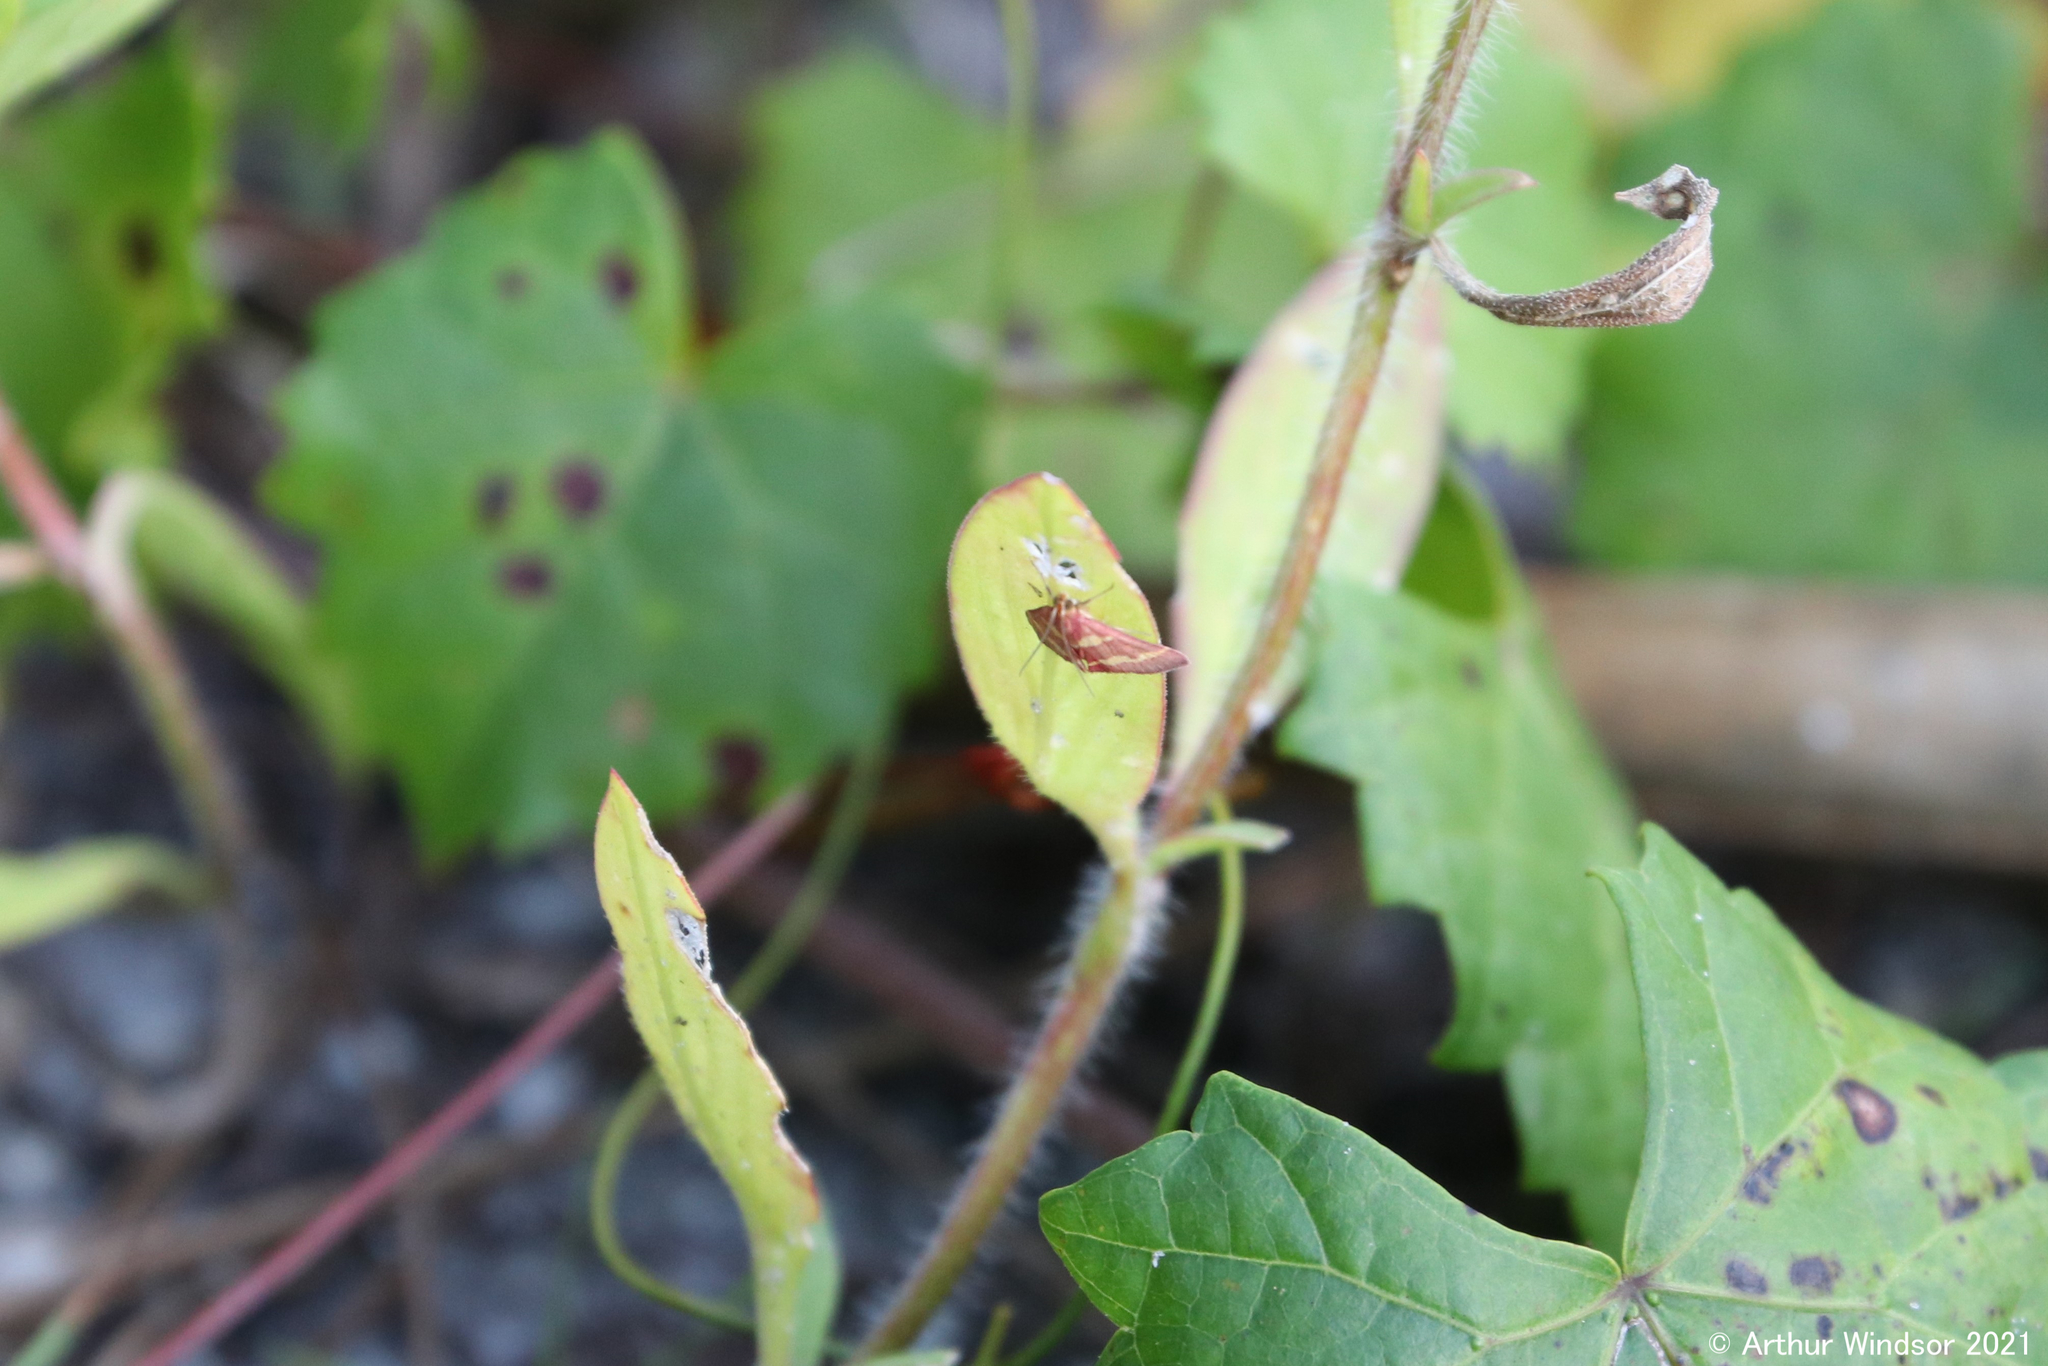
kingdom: Animalia
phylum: Arthropoda
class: Insecta
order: Lepidoptera
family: Crambidae
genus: Pyrausta
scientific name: Pyrausta tyralis
